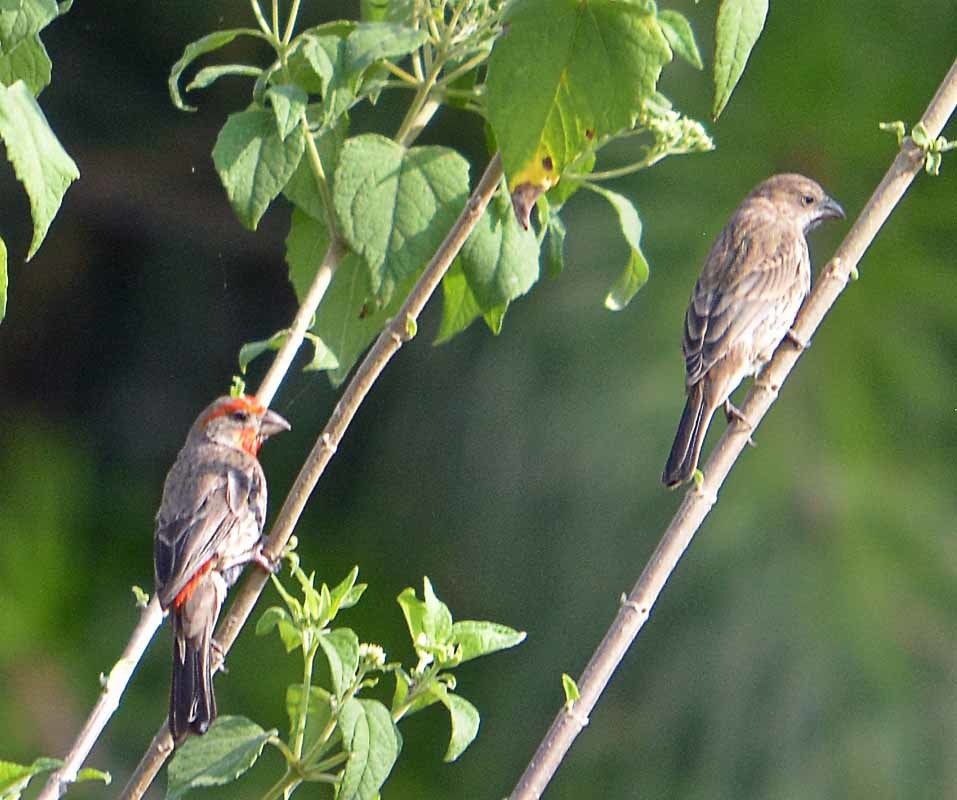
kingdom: Animalia
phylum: Chordata
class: Aves
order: Passeriformes
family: Fringillidae
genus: Haemorhous
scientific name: Haemorhous mexicanus
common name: House finch
